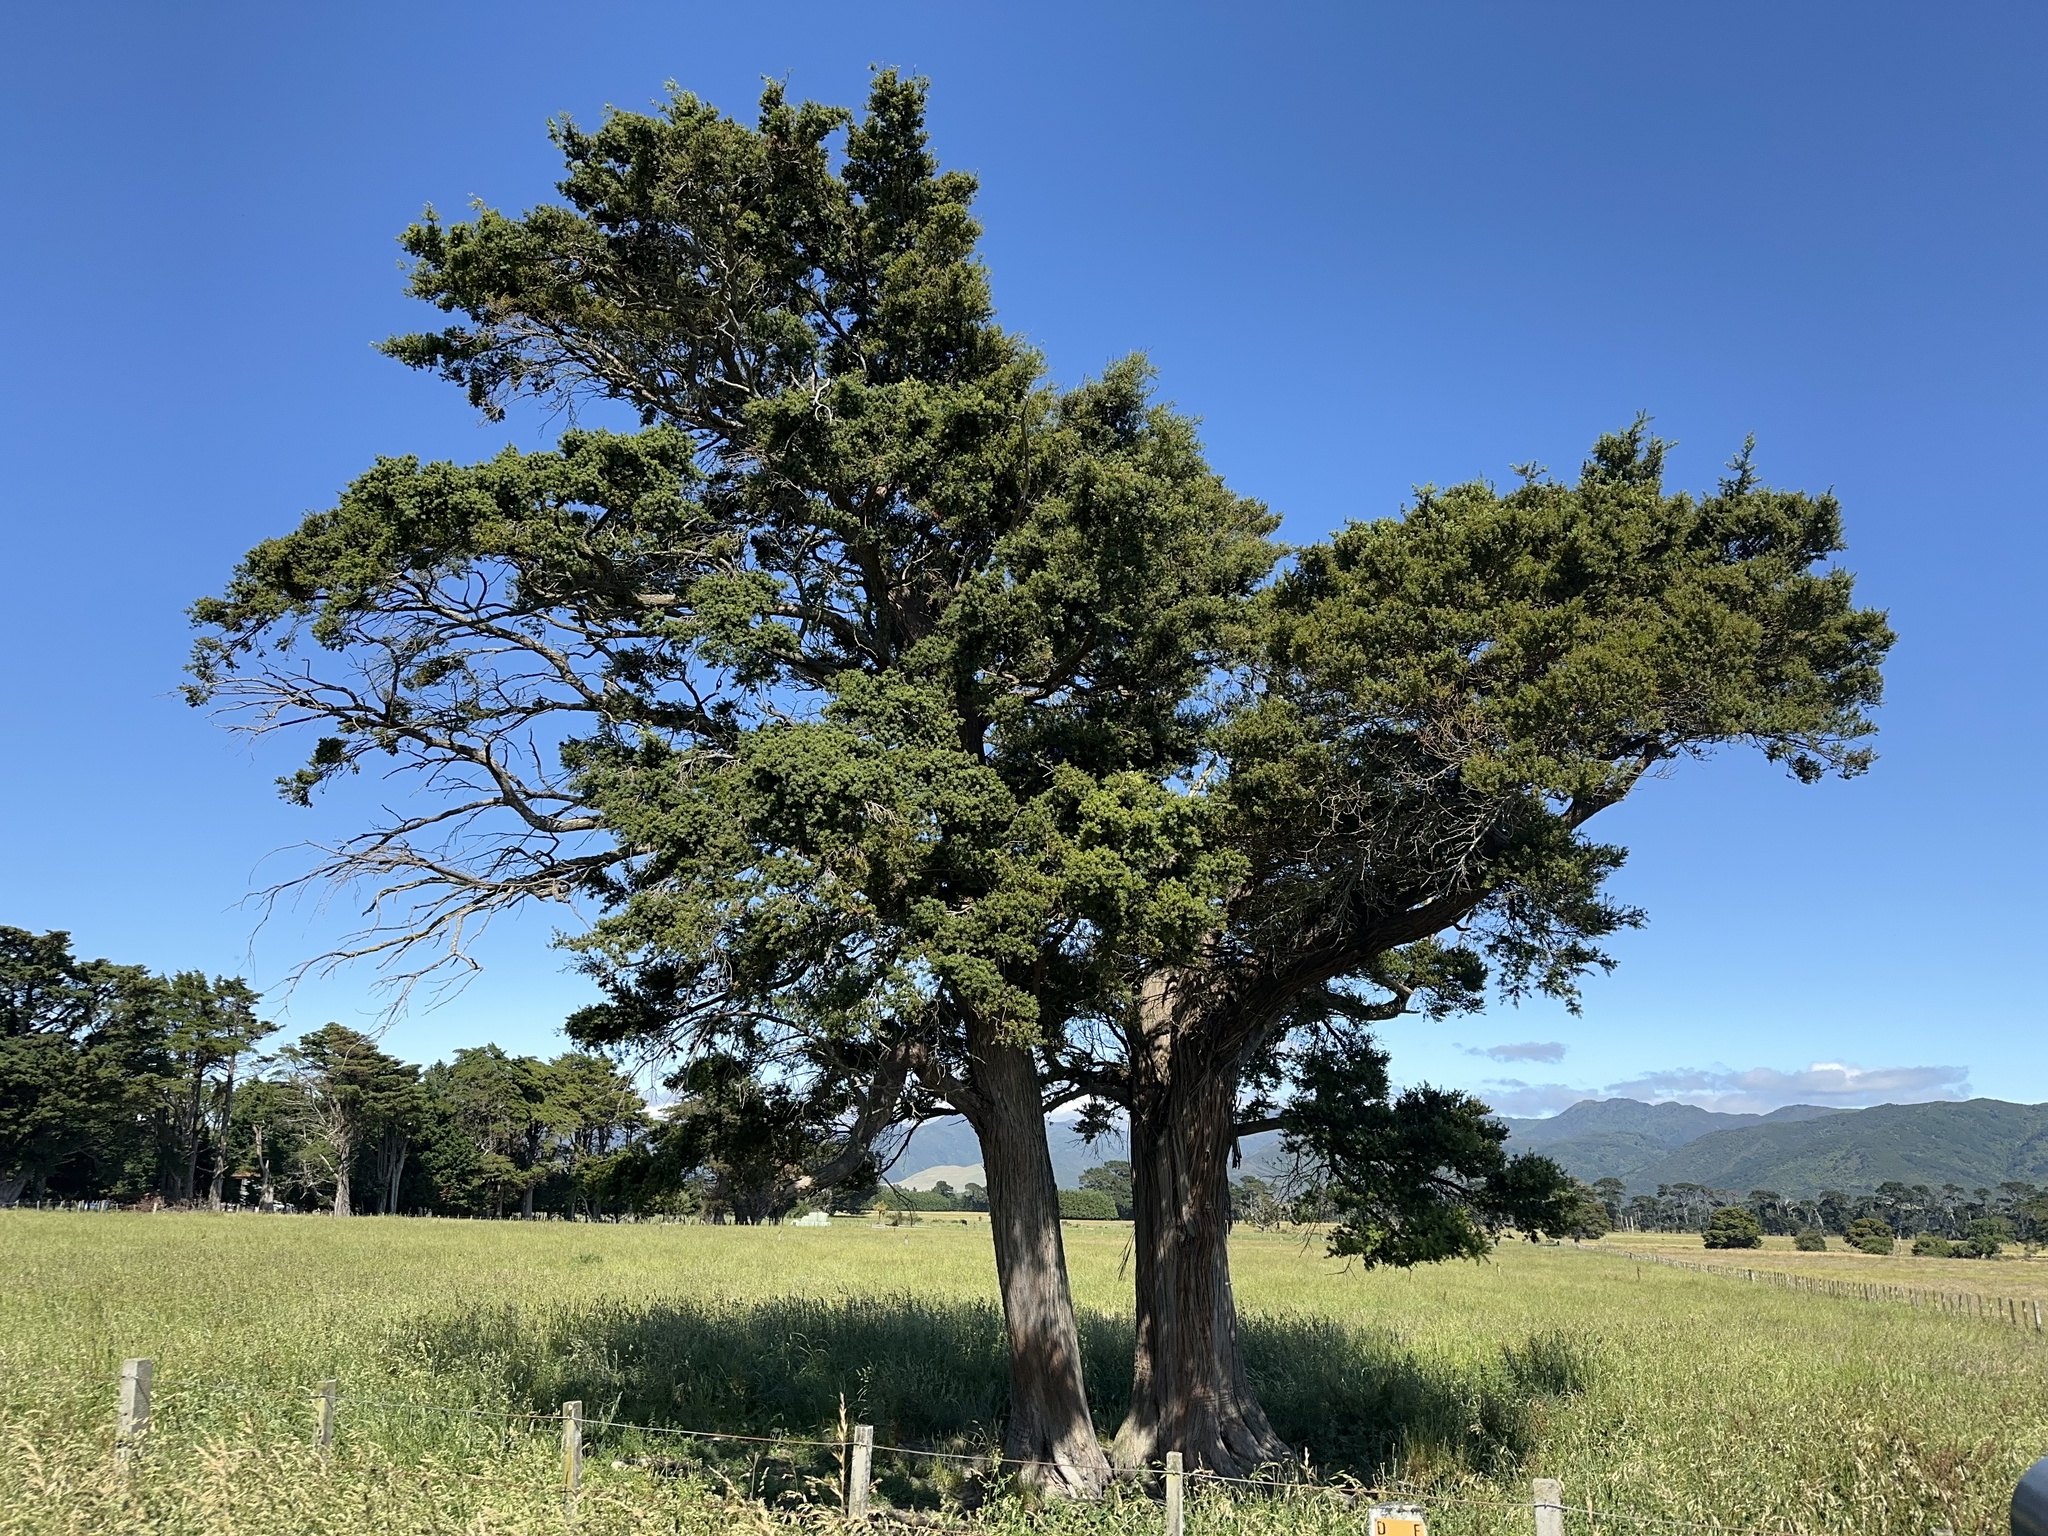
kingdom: Plantae
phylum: Tracheophyta
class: Pinopsida
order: Pinales
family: Podocarpaceae
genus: Podocarpus
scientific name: Podocarpus totara
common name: Totara
